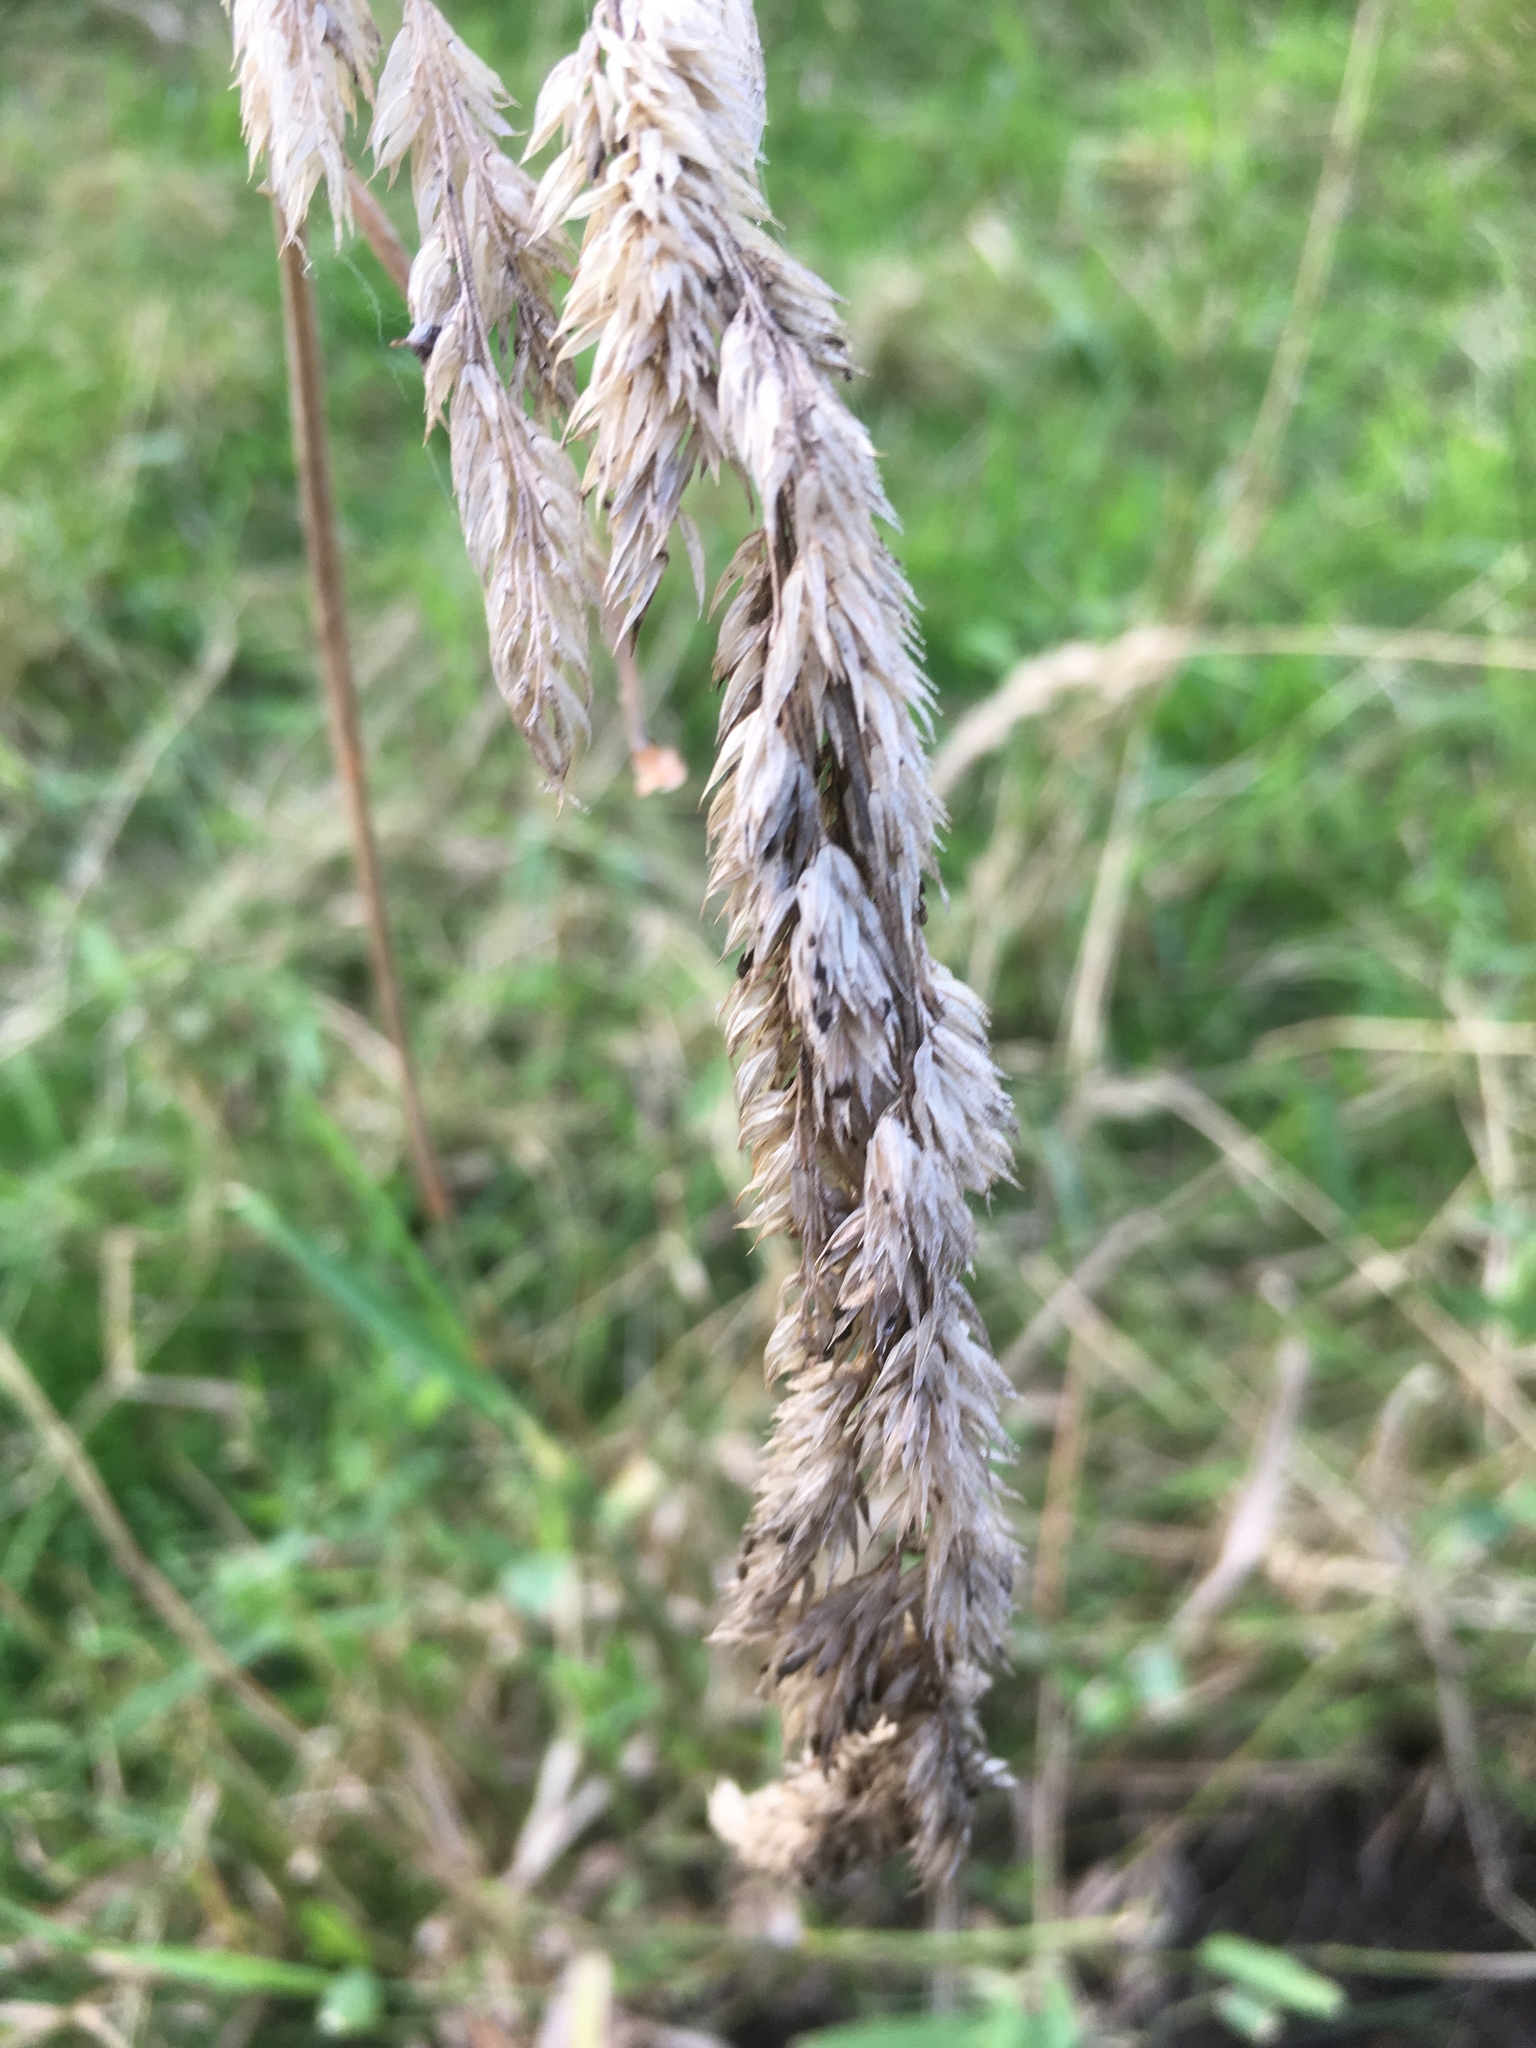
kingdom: Plantae
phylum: Tracheophyta
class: Liliopsida
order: Poales
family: Poaceae
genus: Dactylis
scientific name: Dactylis glomerata
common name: Orchardgrass
